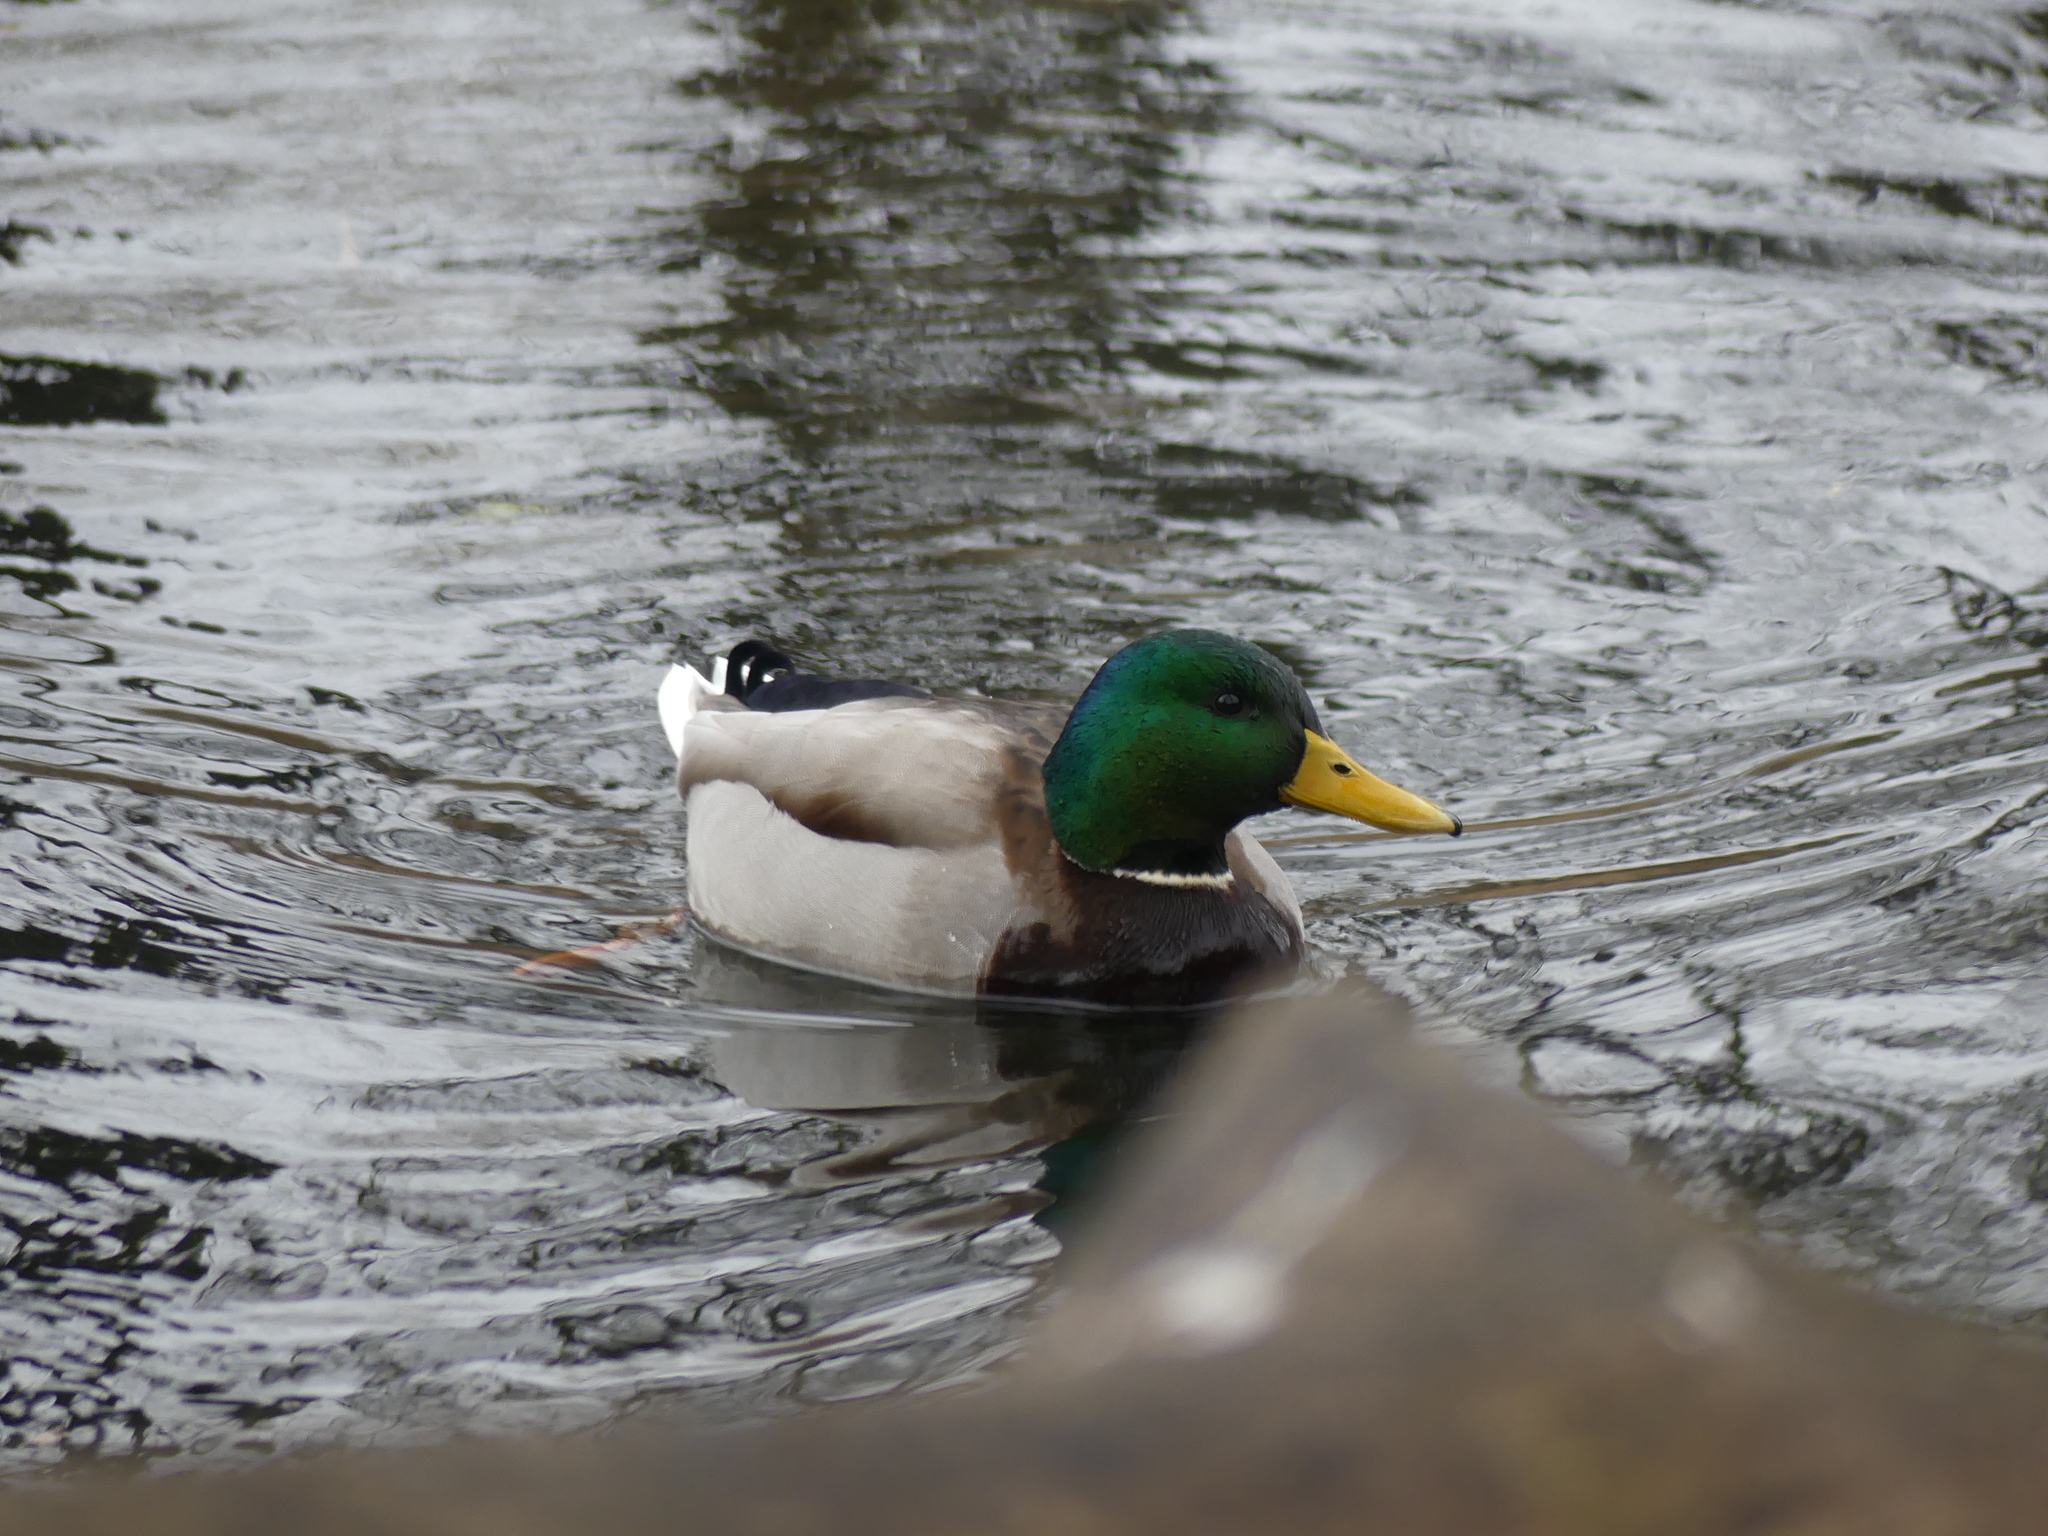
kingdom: Animalia
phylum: Chordata
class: Aves
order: Anseriformes
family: Anatidae
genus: Anas
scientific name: Anas platyrhynchos
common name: Mallard
